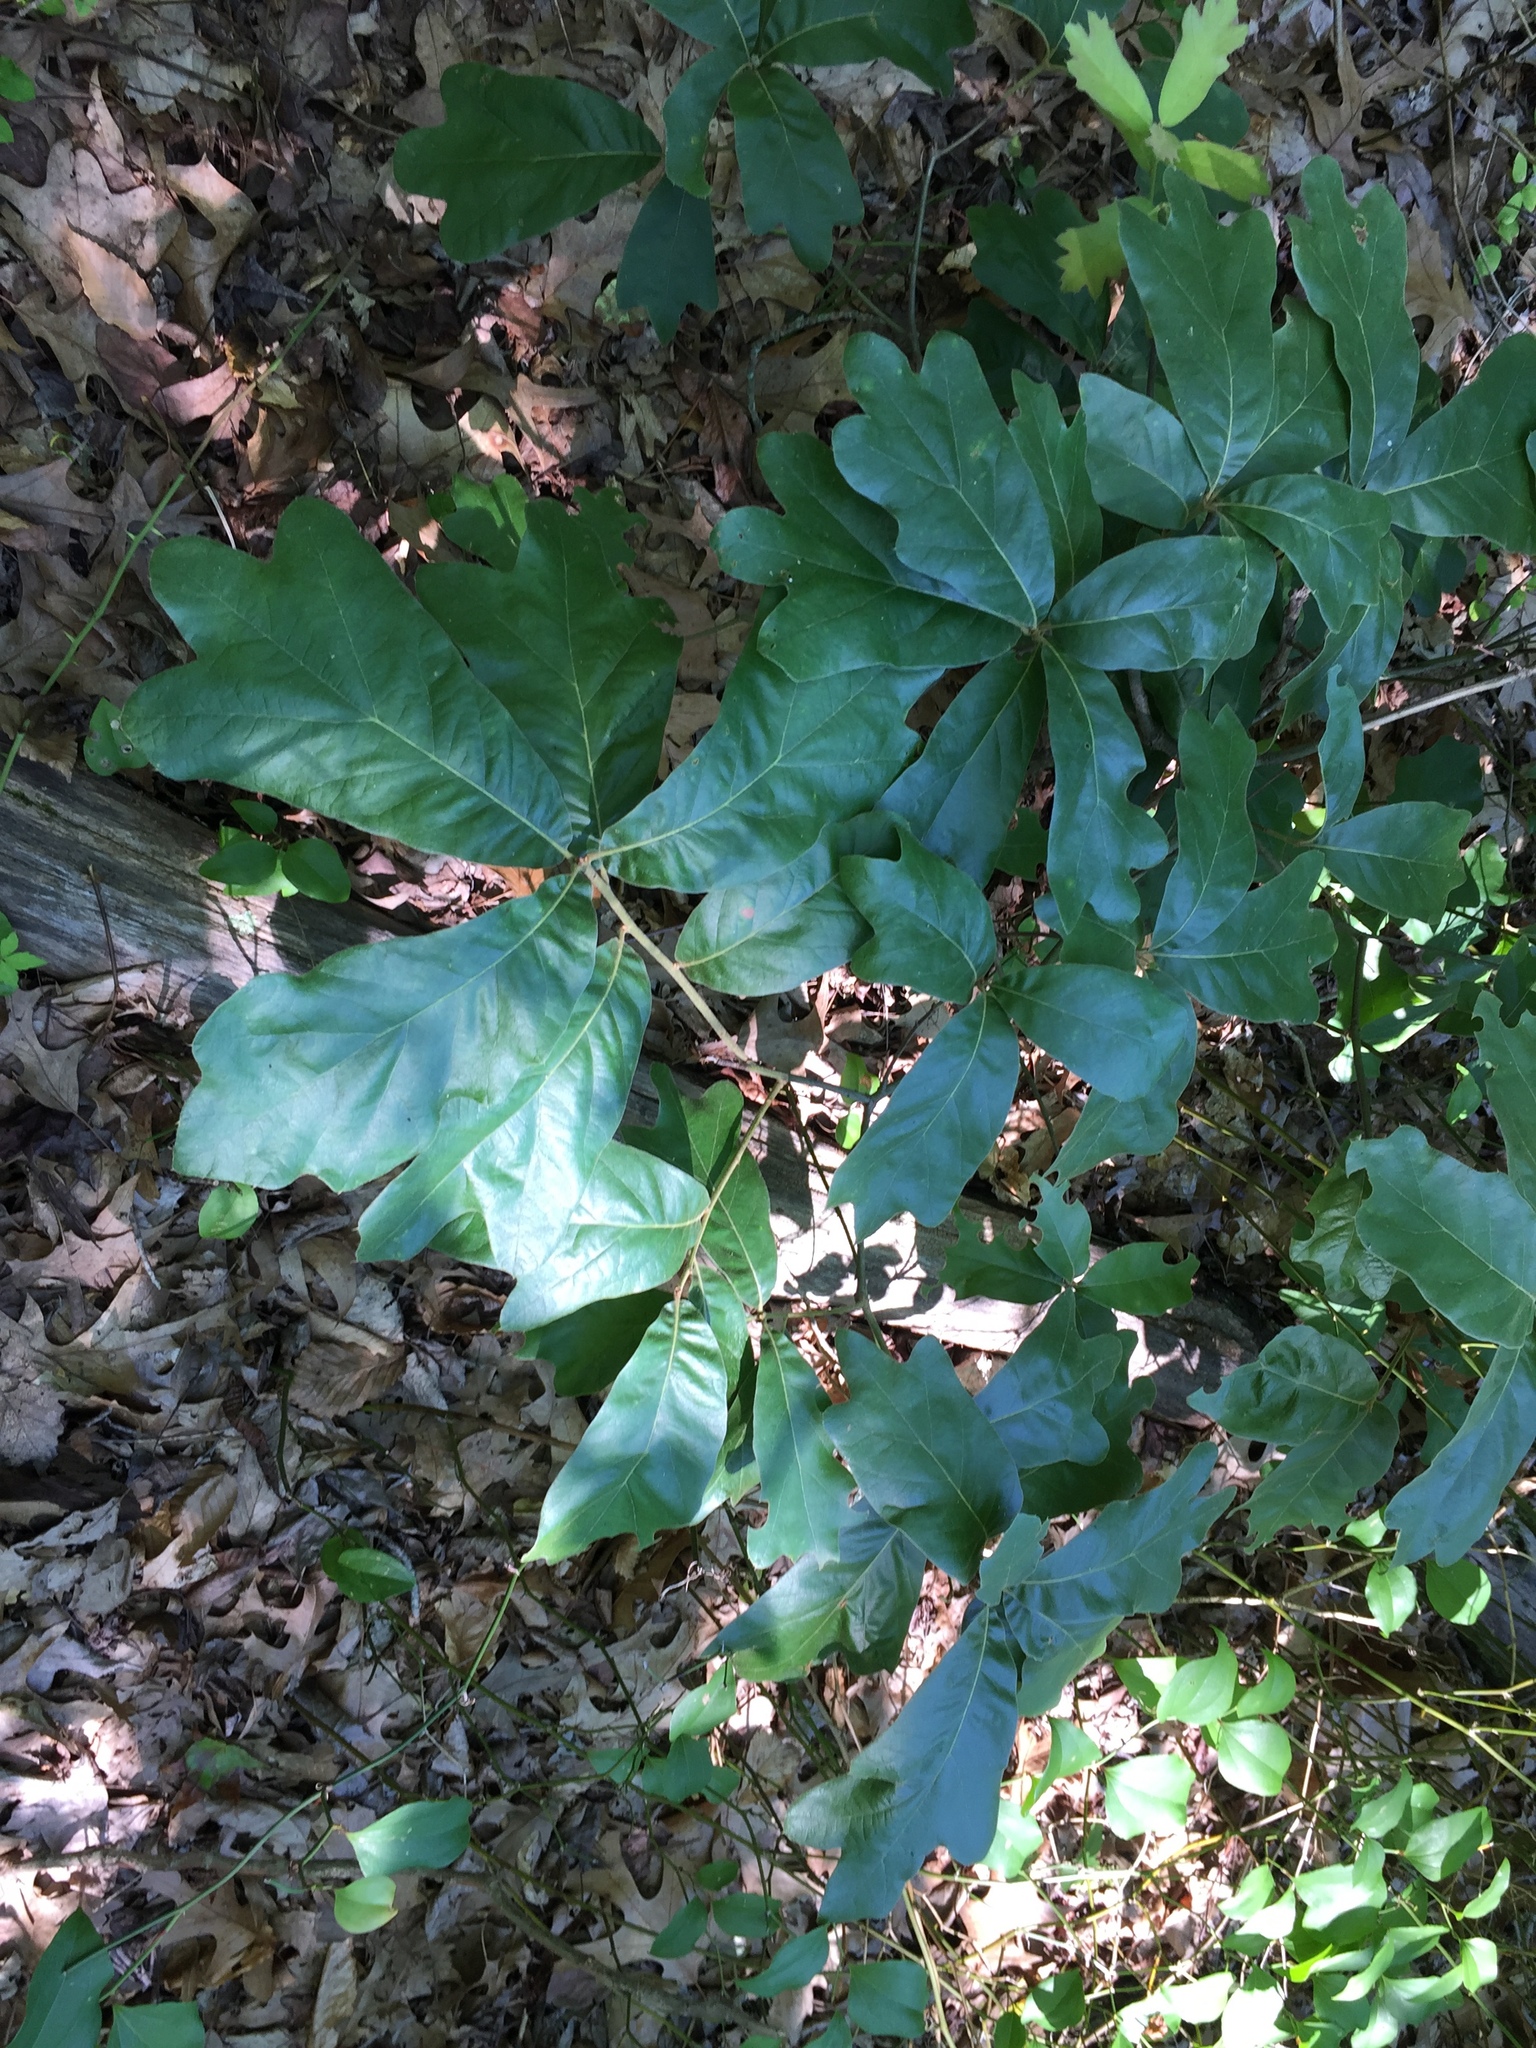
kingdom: Plantae
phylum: Tracheophyta
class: Magnoliopsida
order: Fagales
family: Fagaceae
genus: Quercus
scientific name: Quercus falcata
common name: Southern red oak
